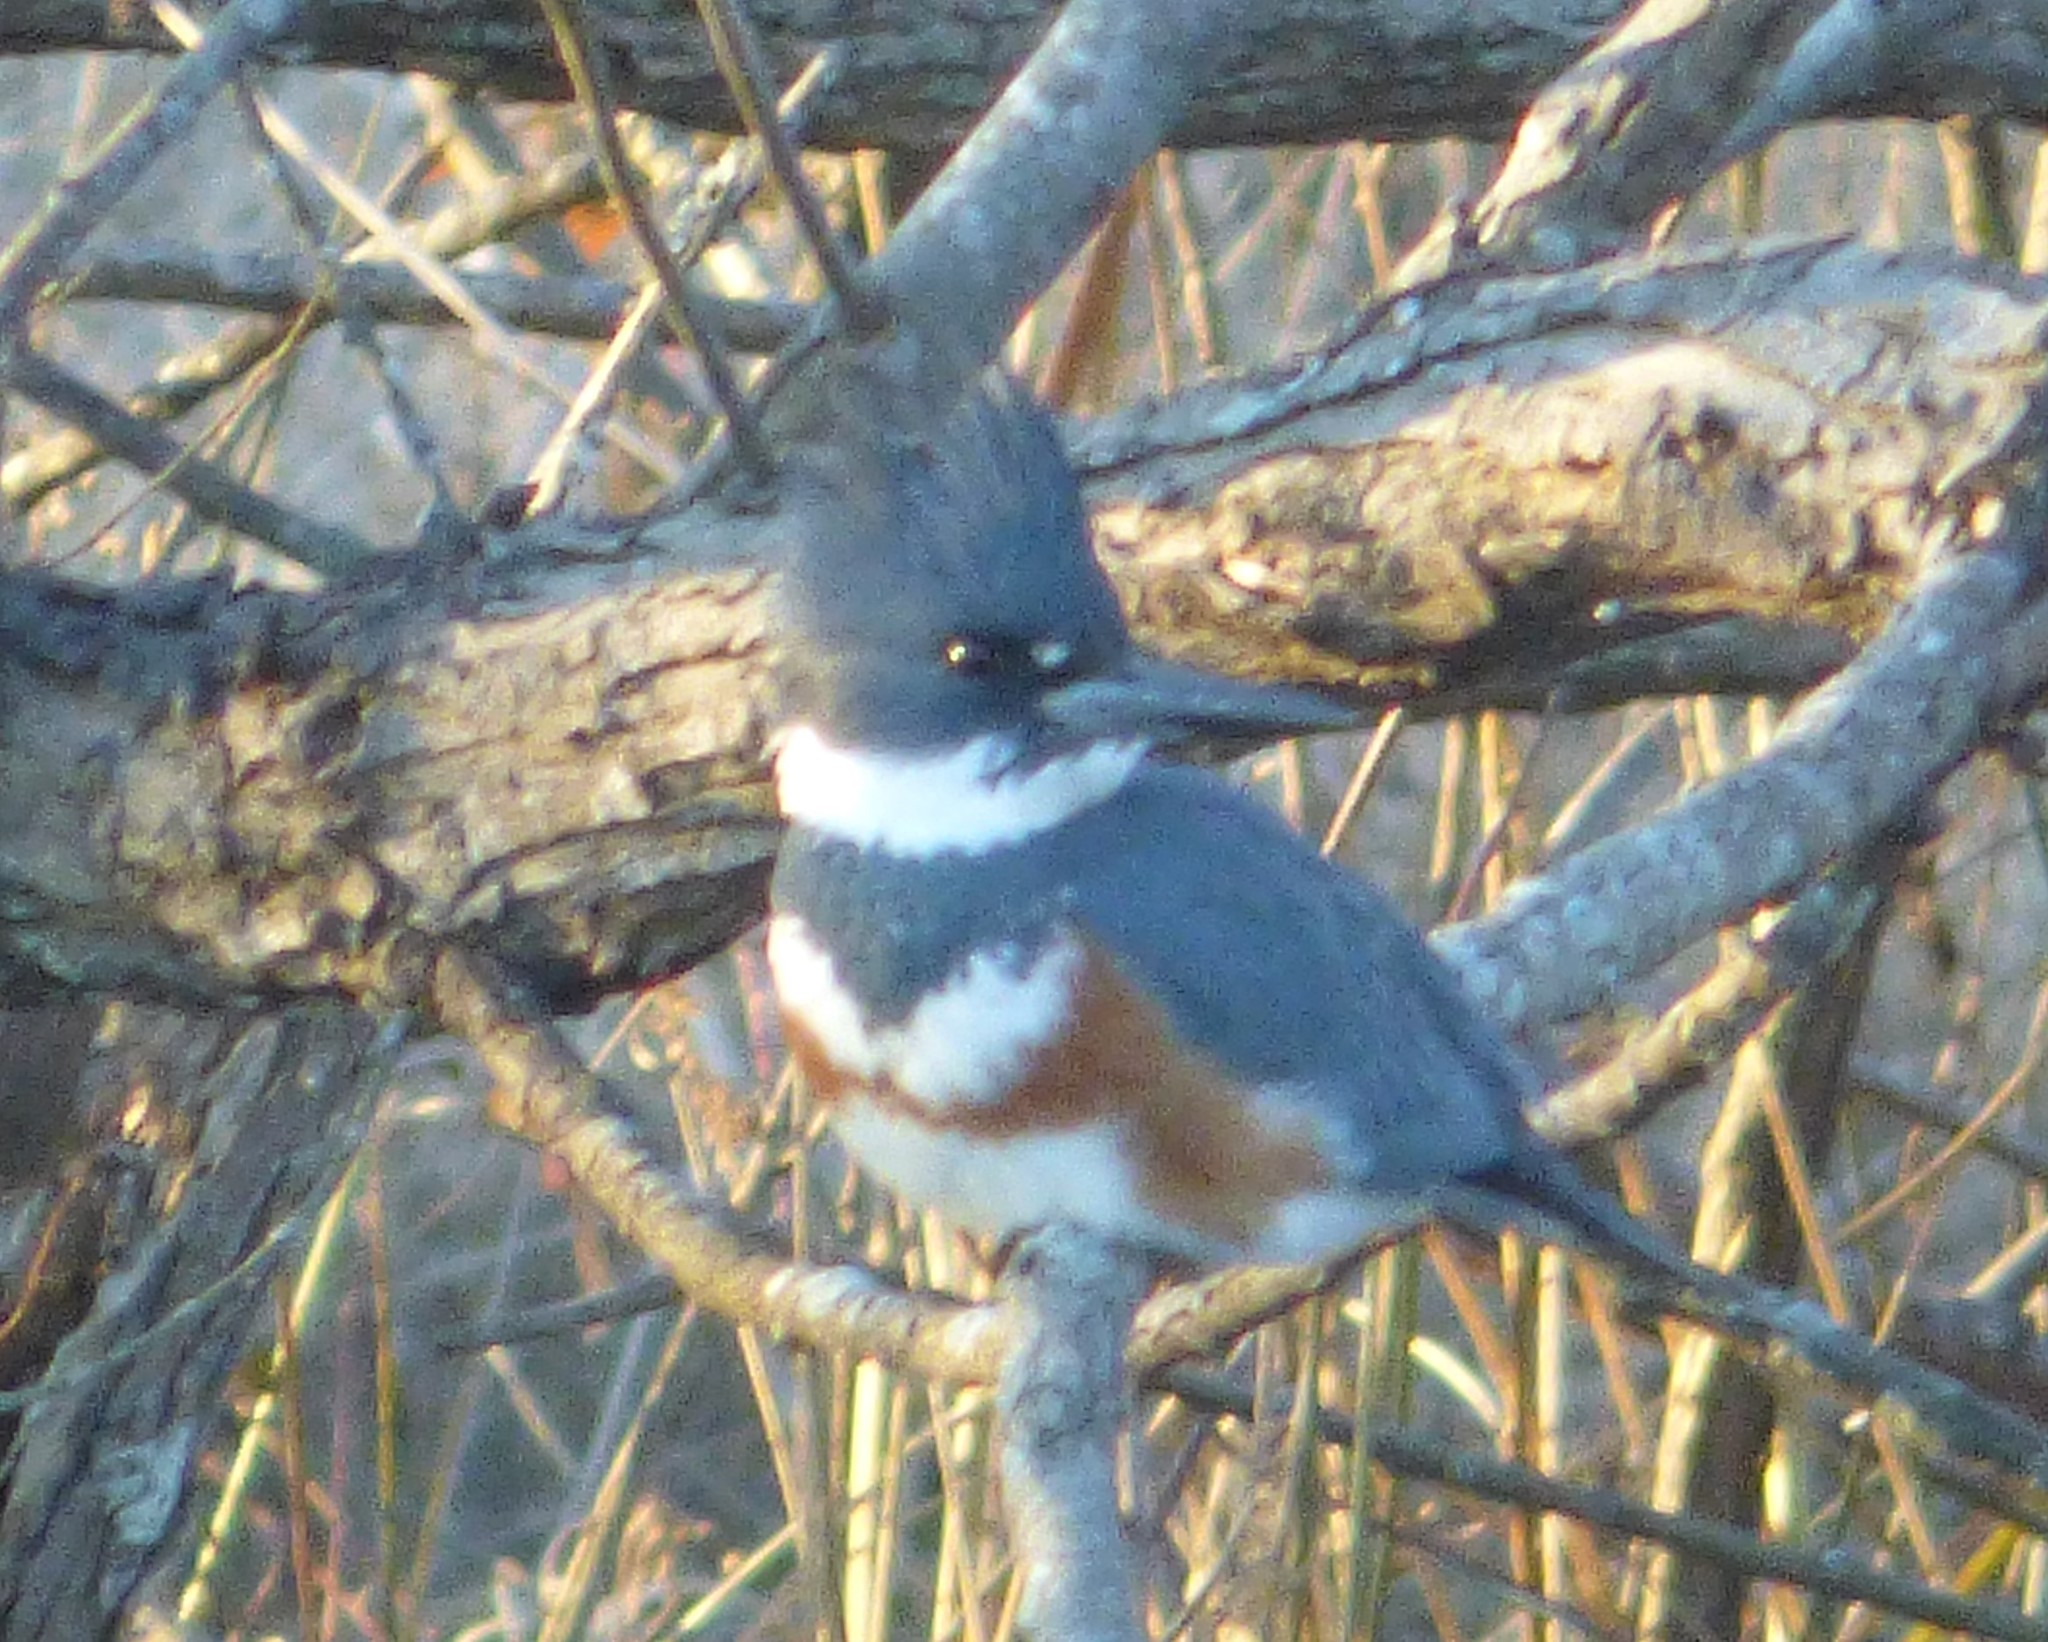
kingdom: Animalia
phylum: Chordata
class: Aves
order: Coraciiformes
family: Alcedinidae
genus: Megaceryle
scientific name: Megaceryle alcyon
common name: Belted kingfisher
